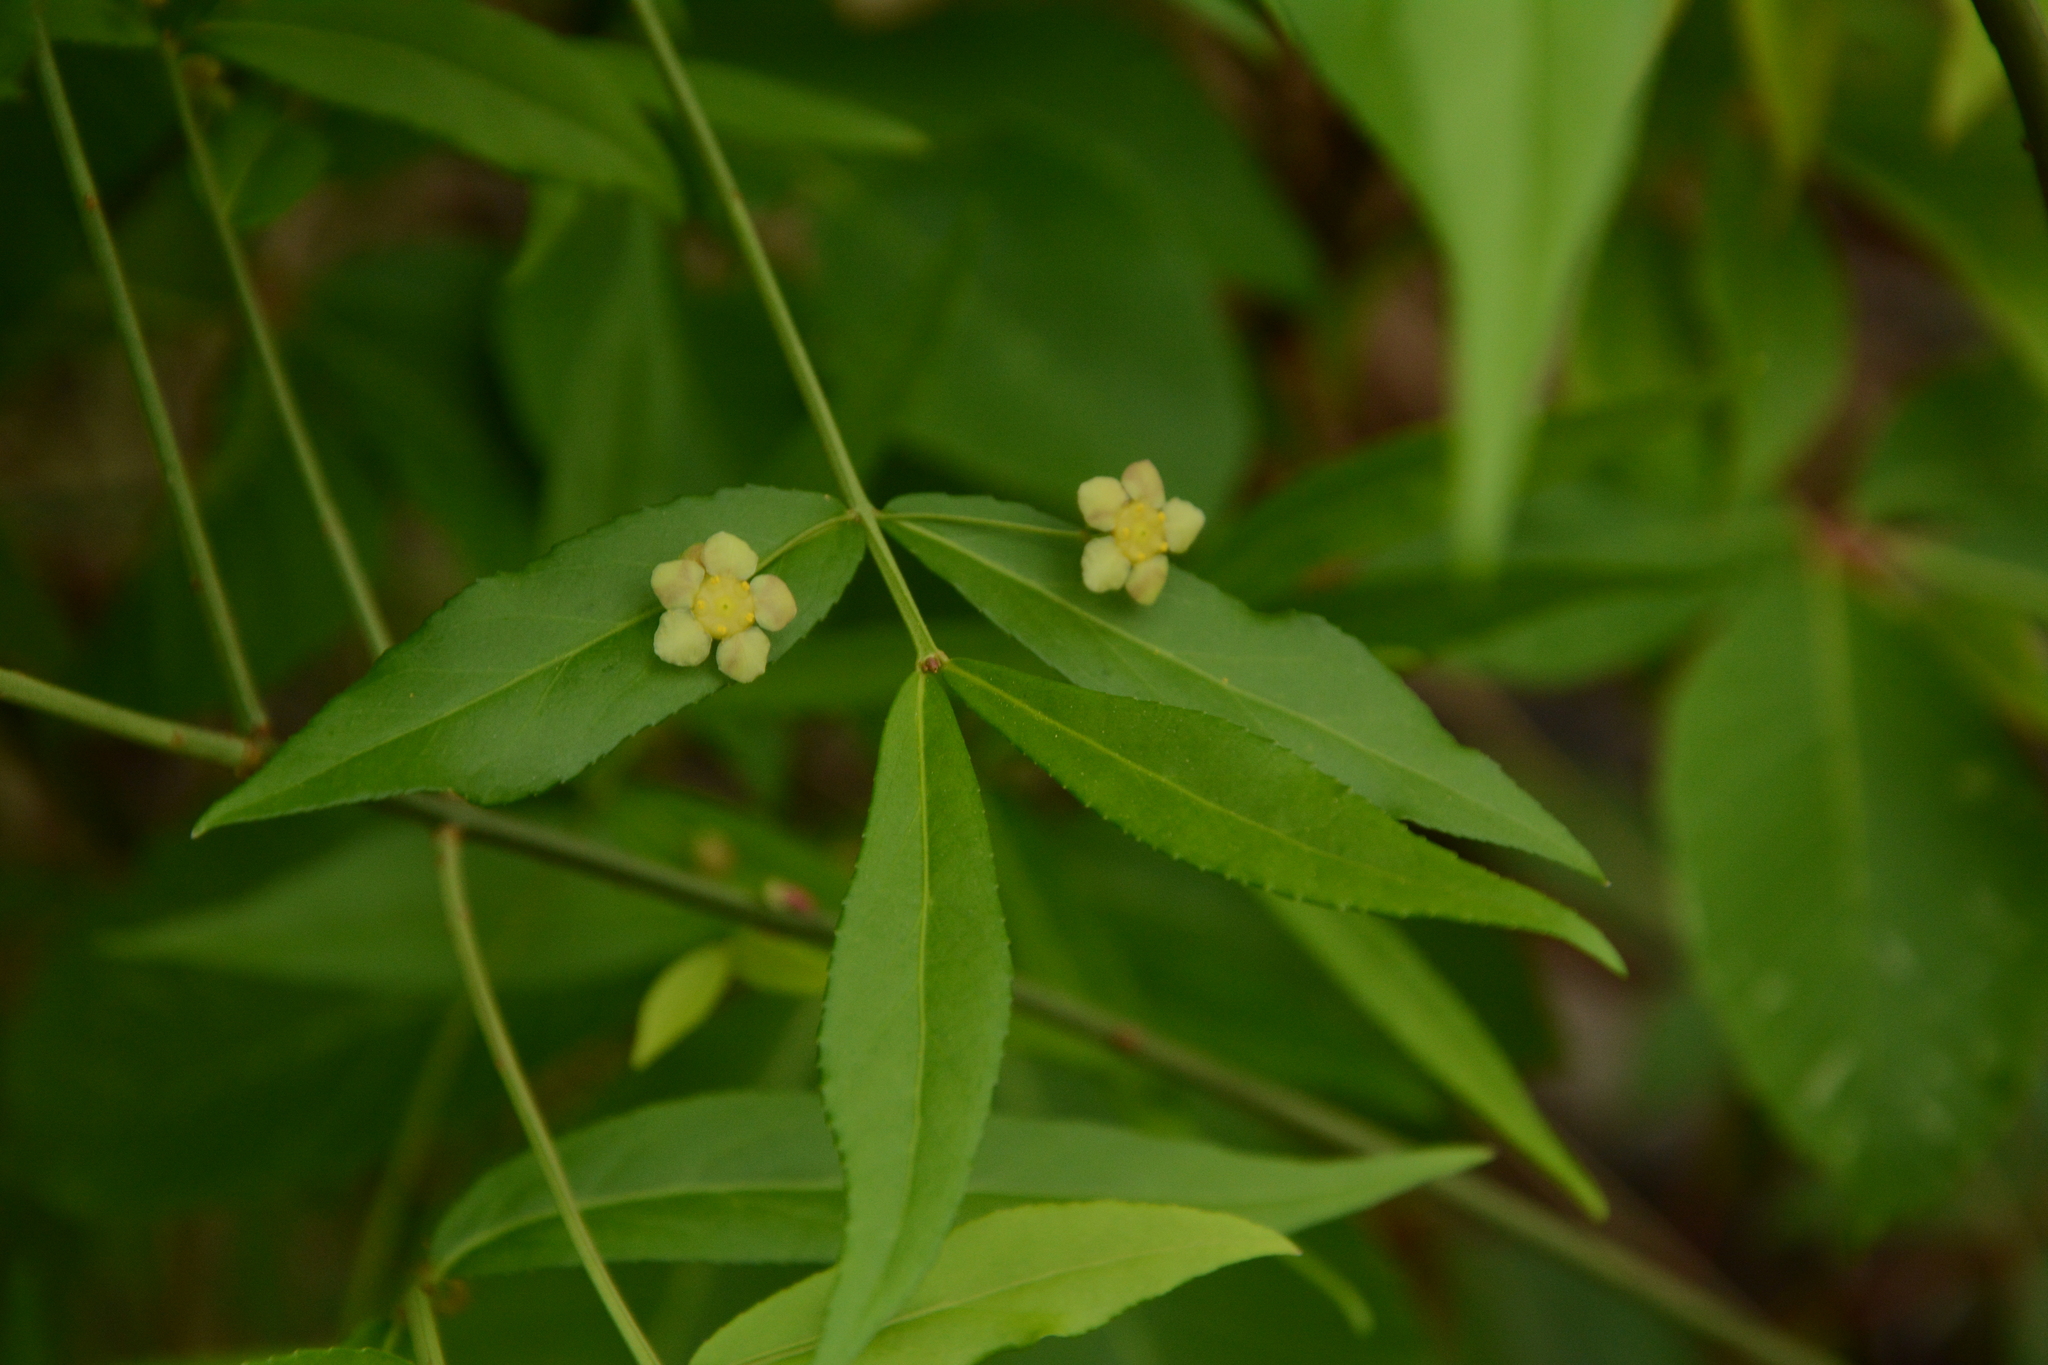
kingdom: Plantae
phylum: Tracheophyta
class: Magnoliopsida
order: Celastrales
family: Celastraceae
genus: Euonymus
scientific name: Euonymus americanus
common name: Bursting-heart
